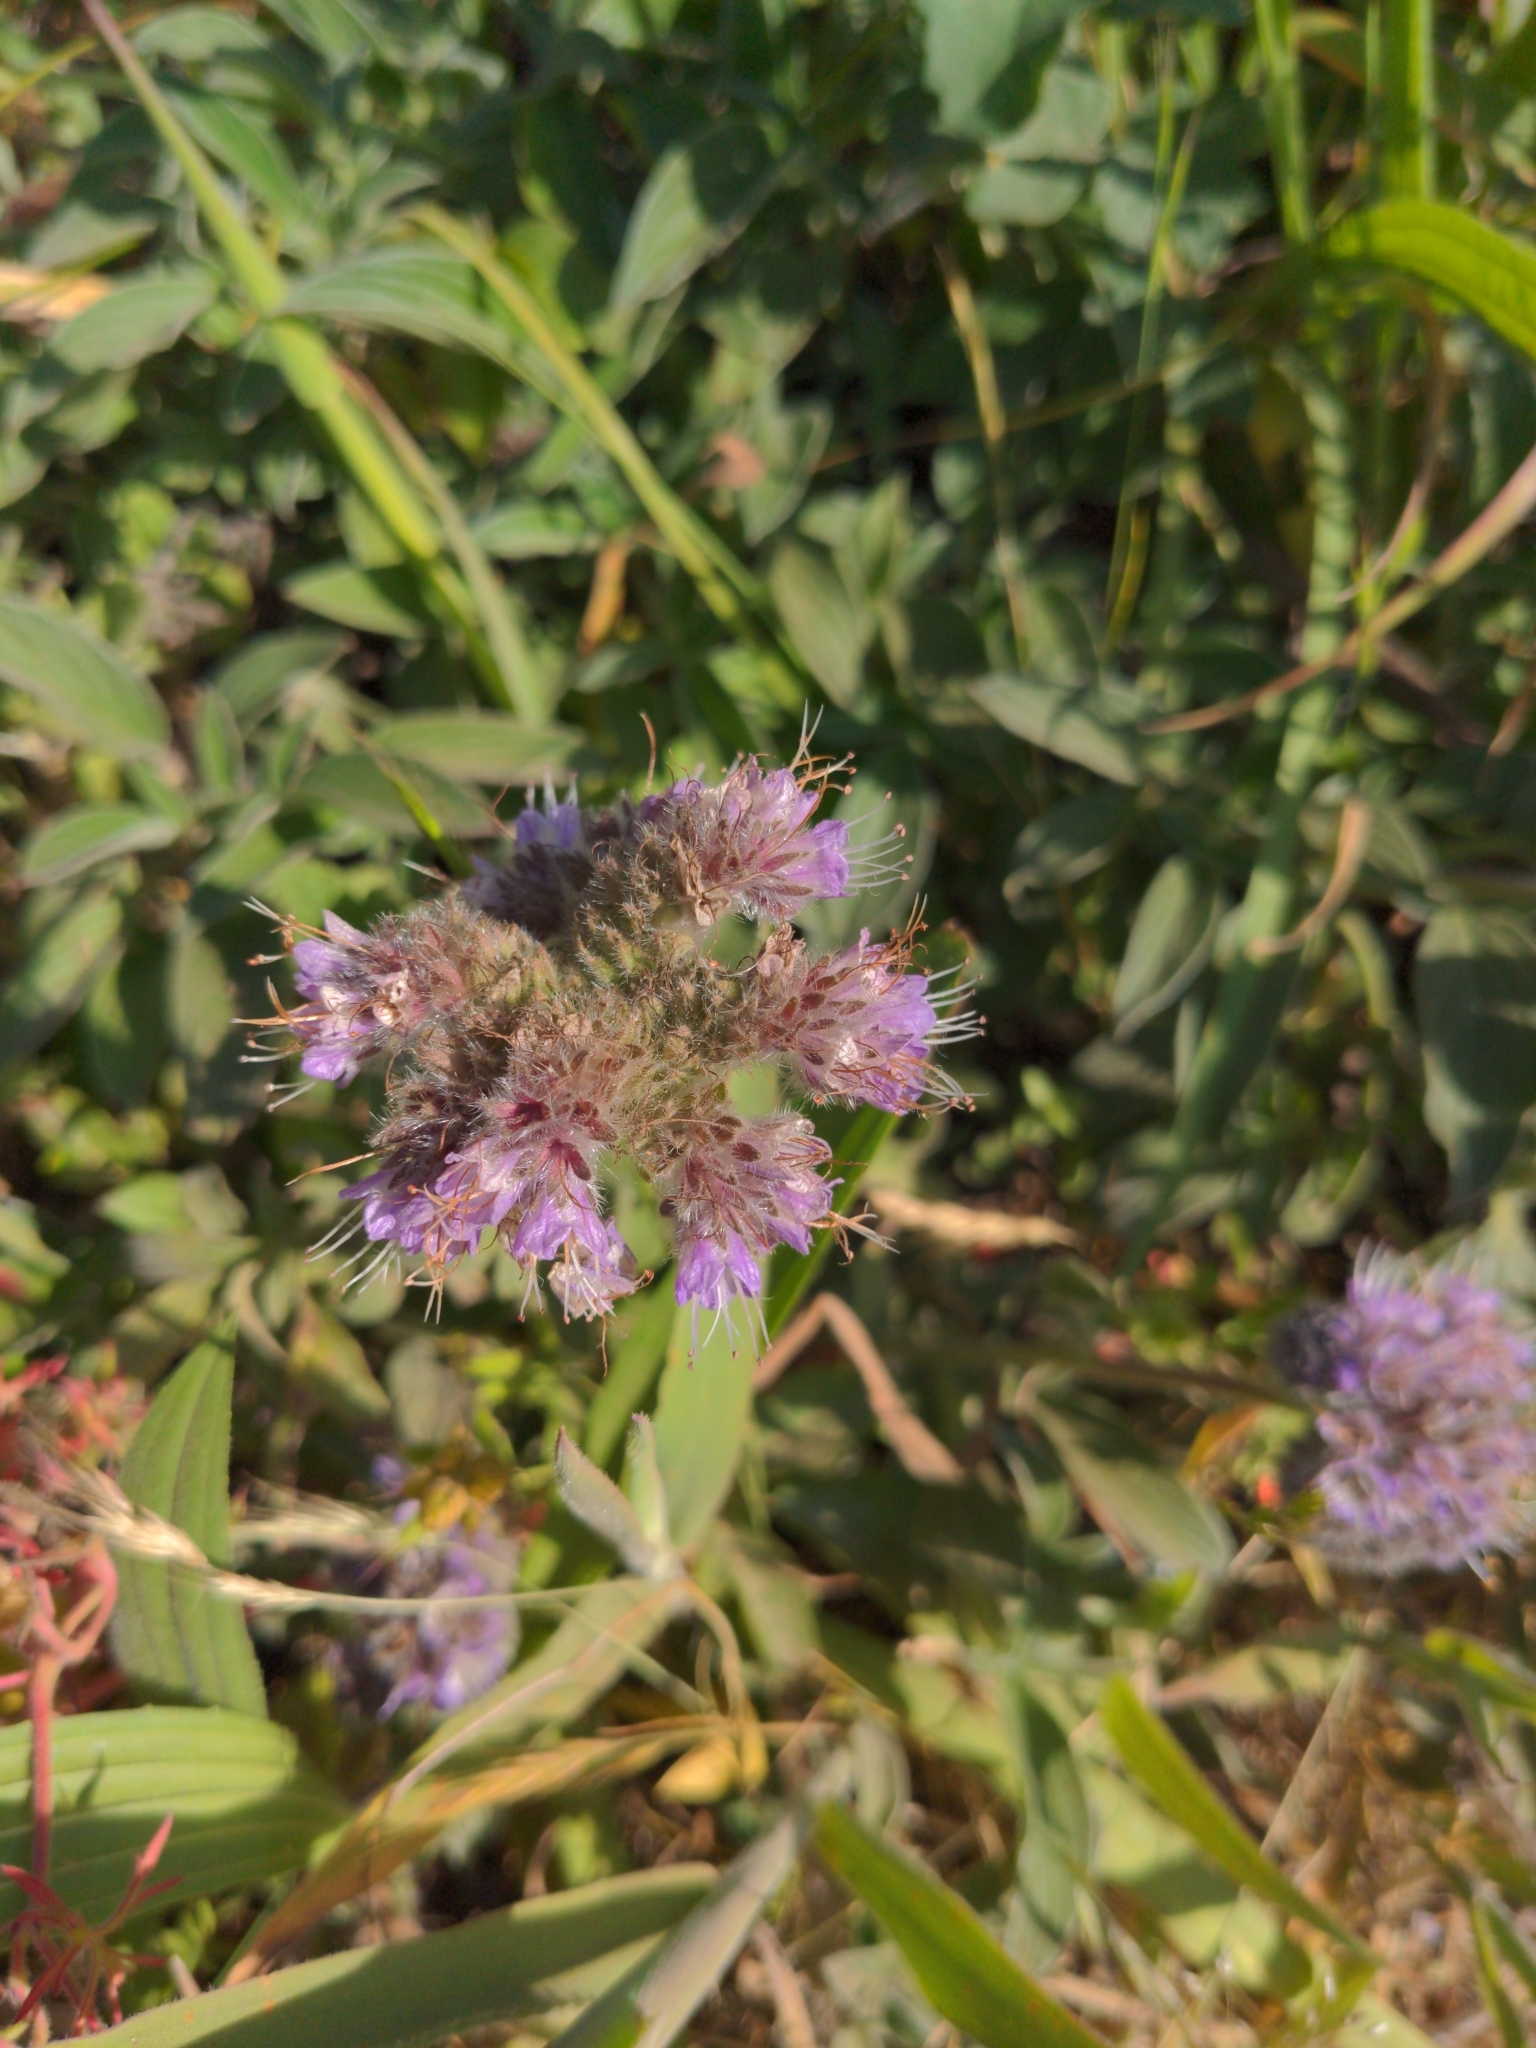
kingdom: Plantae
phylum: Tracheophyta
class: Magnoliopsida
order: Boraginales
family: Hydrophyllaceae
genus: Phacelia
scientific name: Phacelia californica
